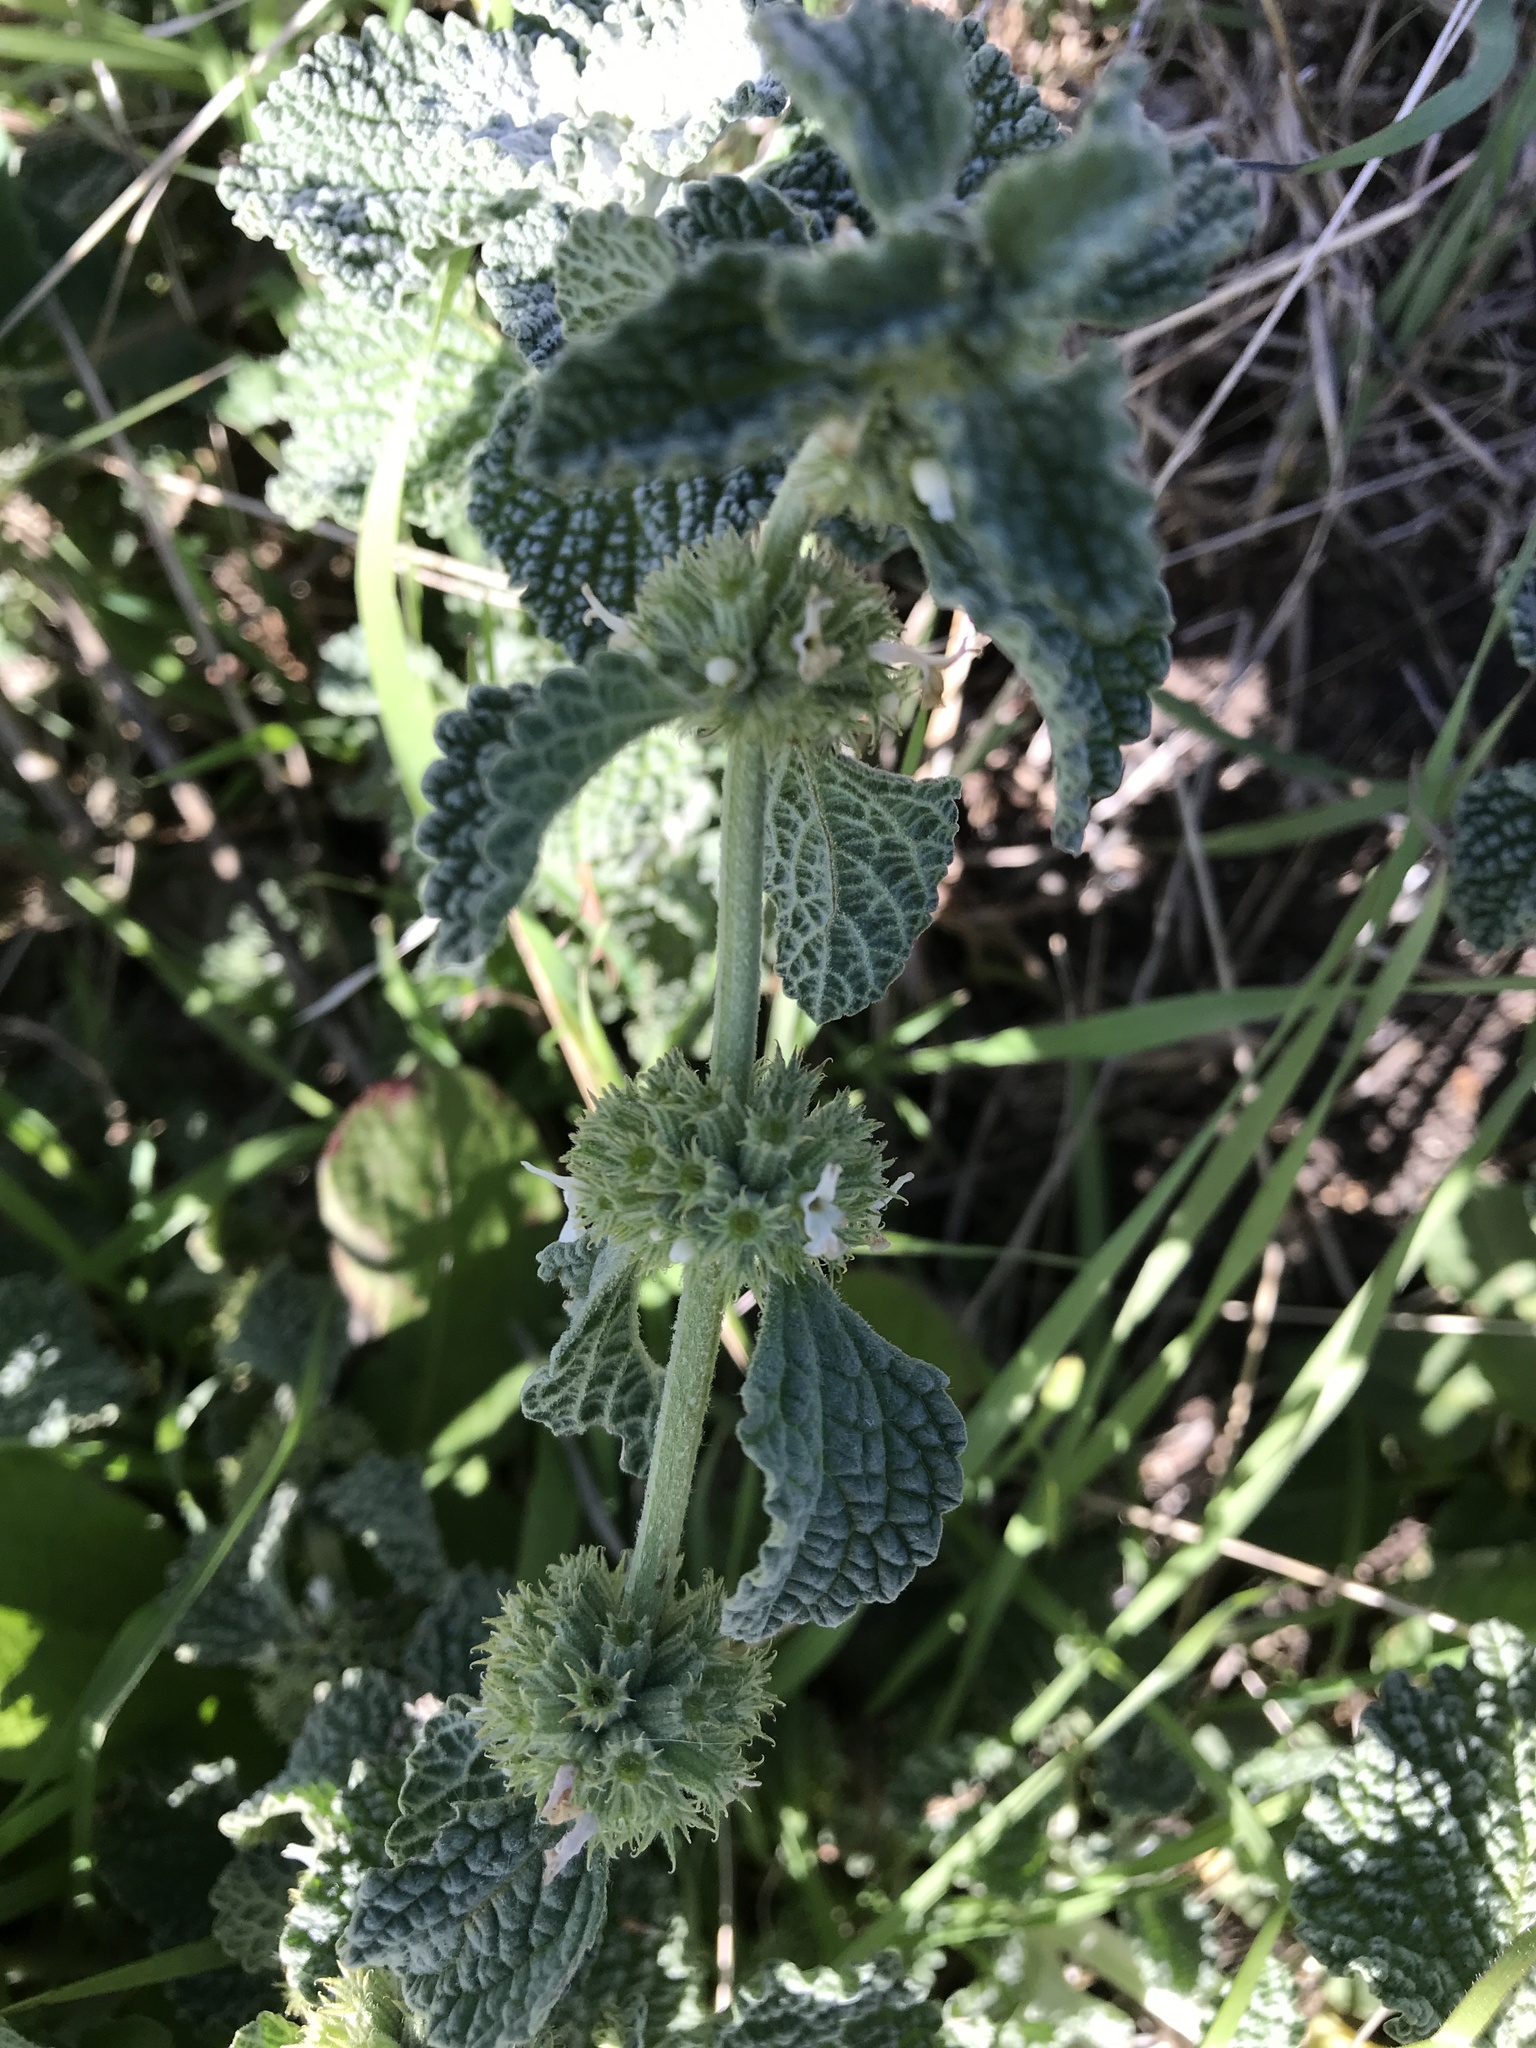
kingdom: Plantae
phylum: Tracheophyta
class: Magnoliopsida
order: Lamiales
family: Lamiaceae
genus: Marrubium
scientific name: Marrubium vulgare
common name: Horehound
